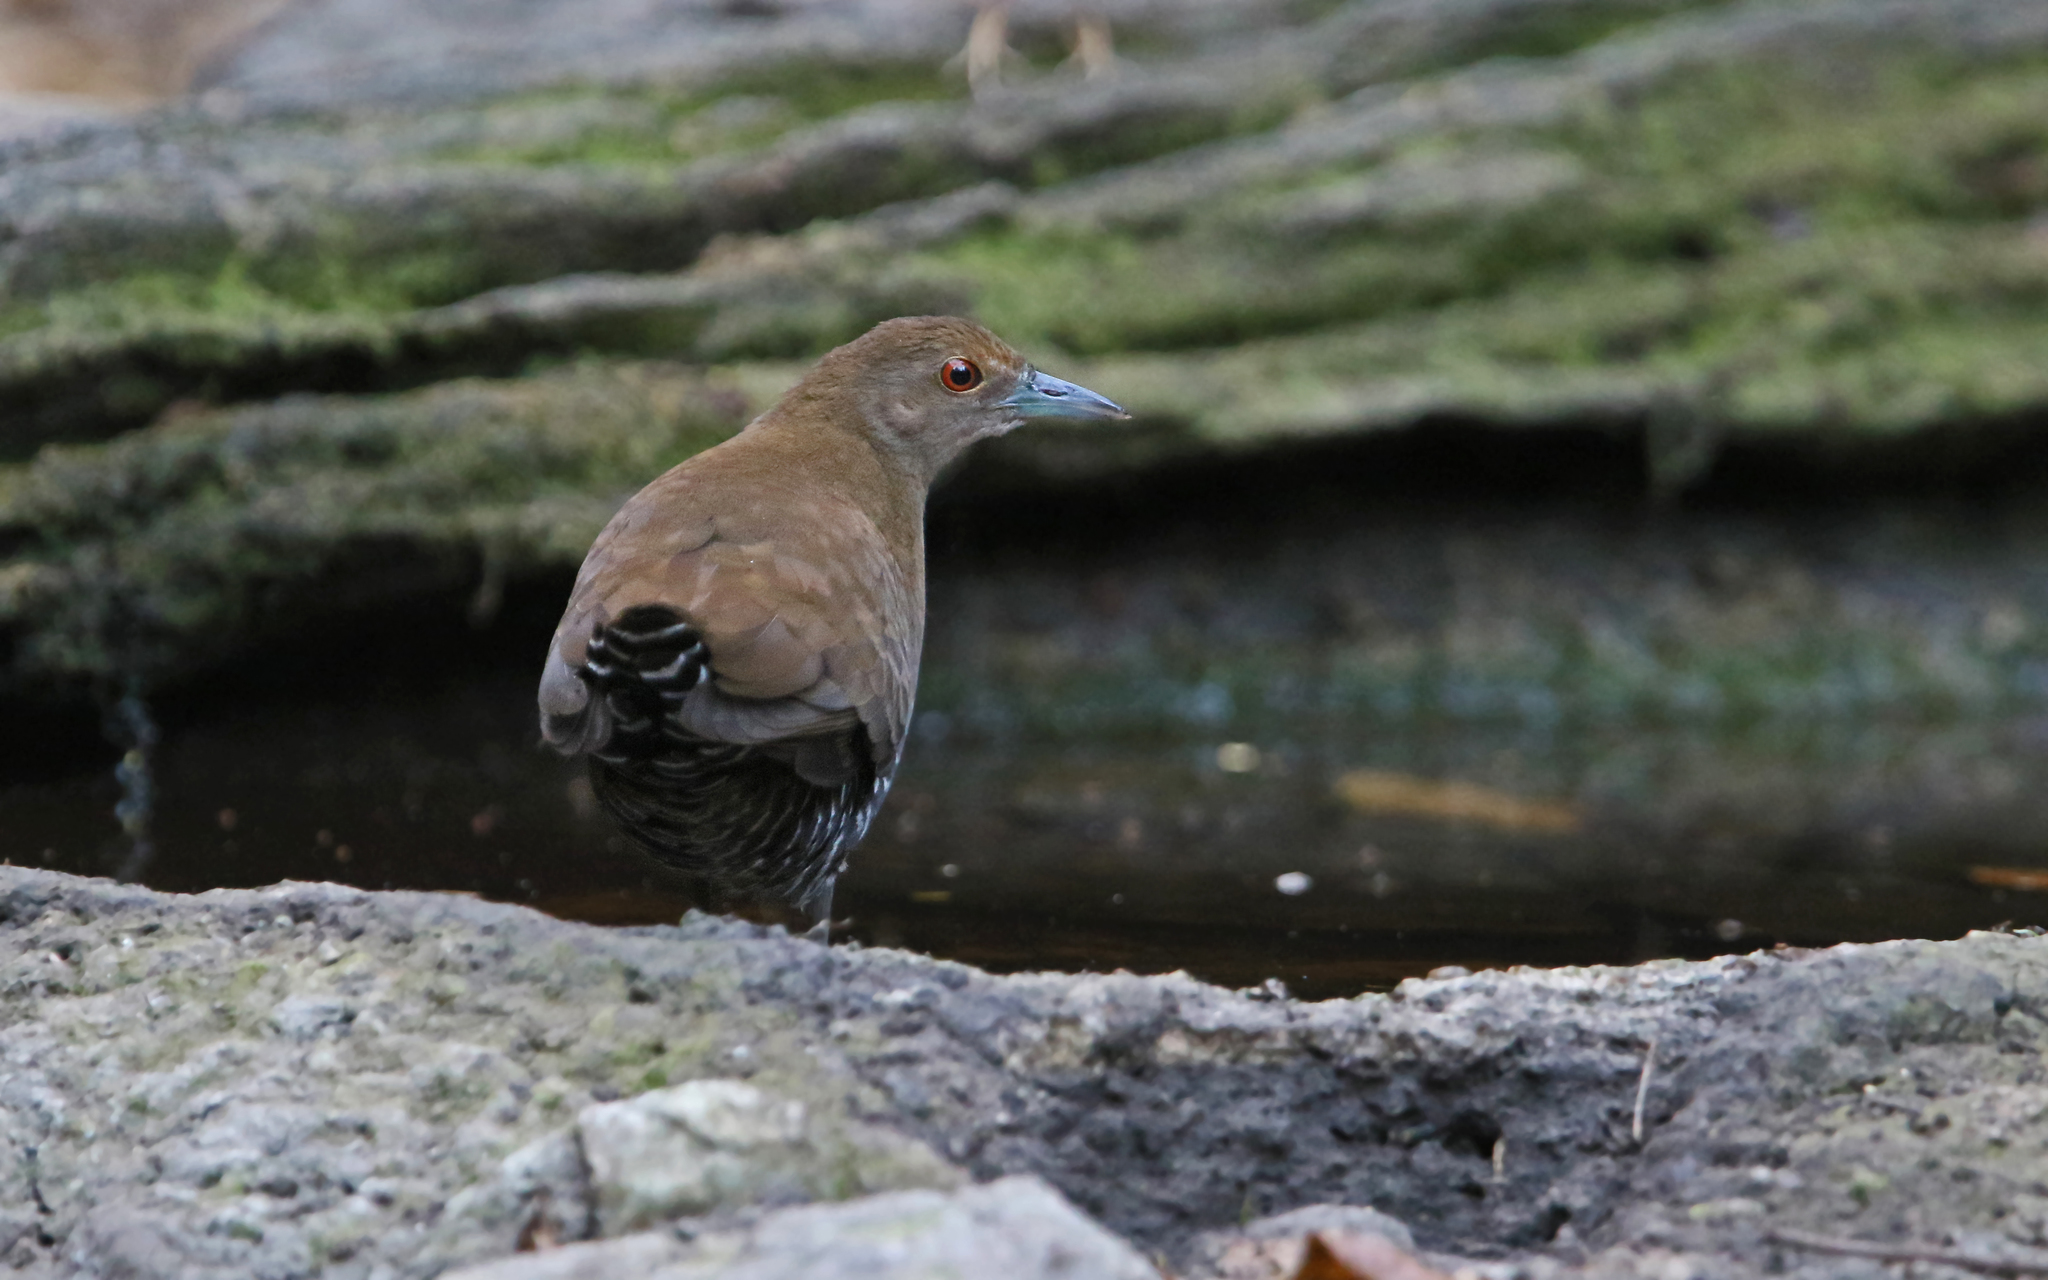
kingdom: Animalia
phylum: Chordata
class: Aves
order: Gruiformes
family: Rallidae
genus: Rallina
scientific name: Rallina eurizonoides
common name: Slaty-legged crake
